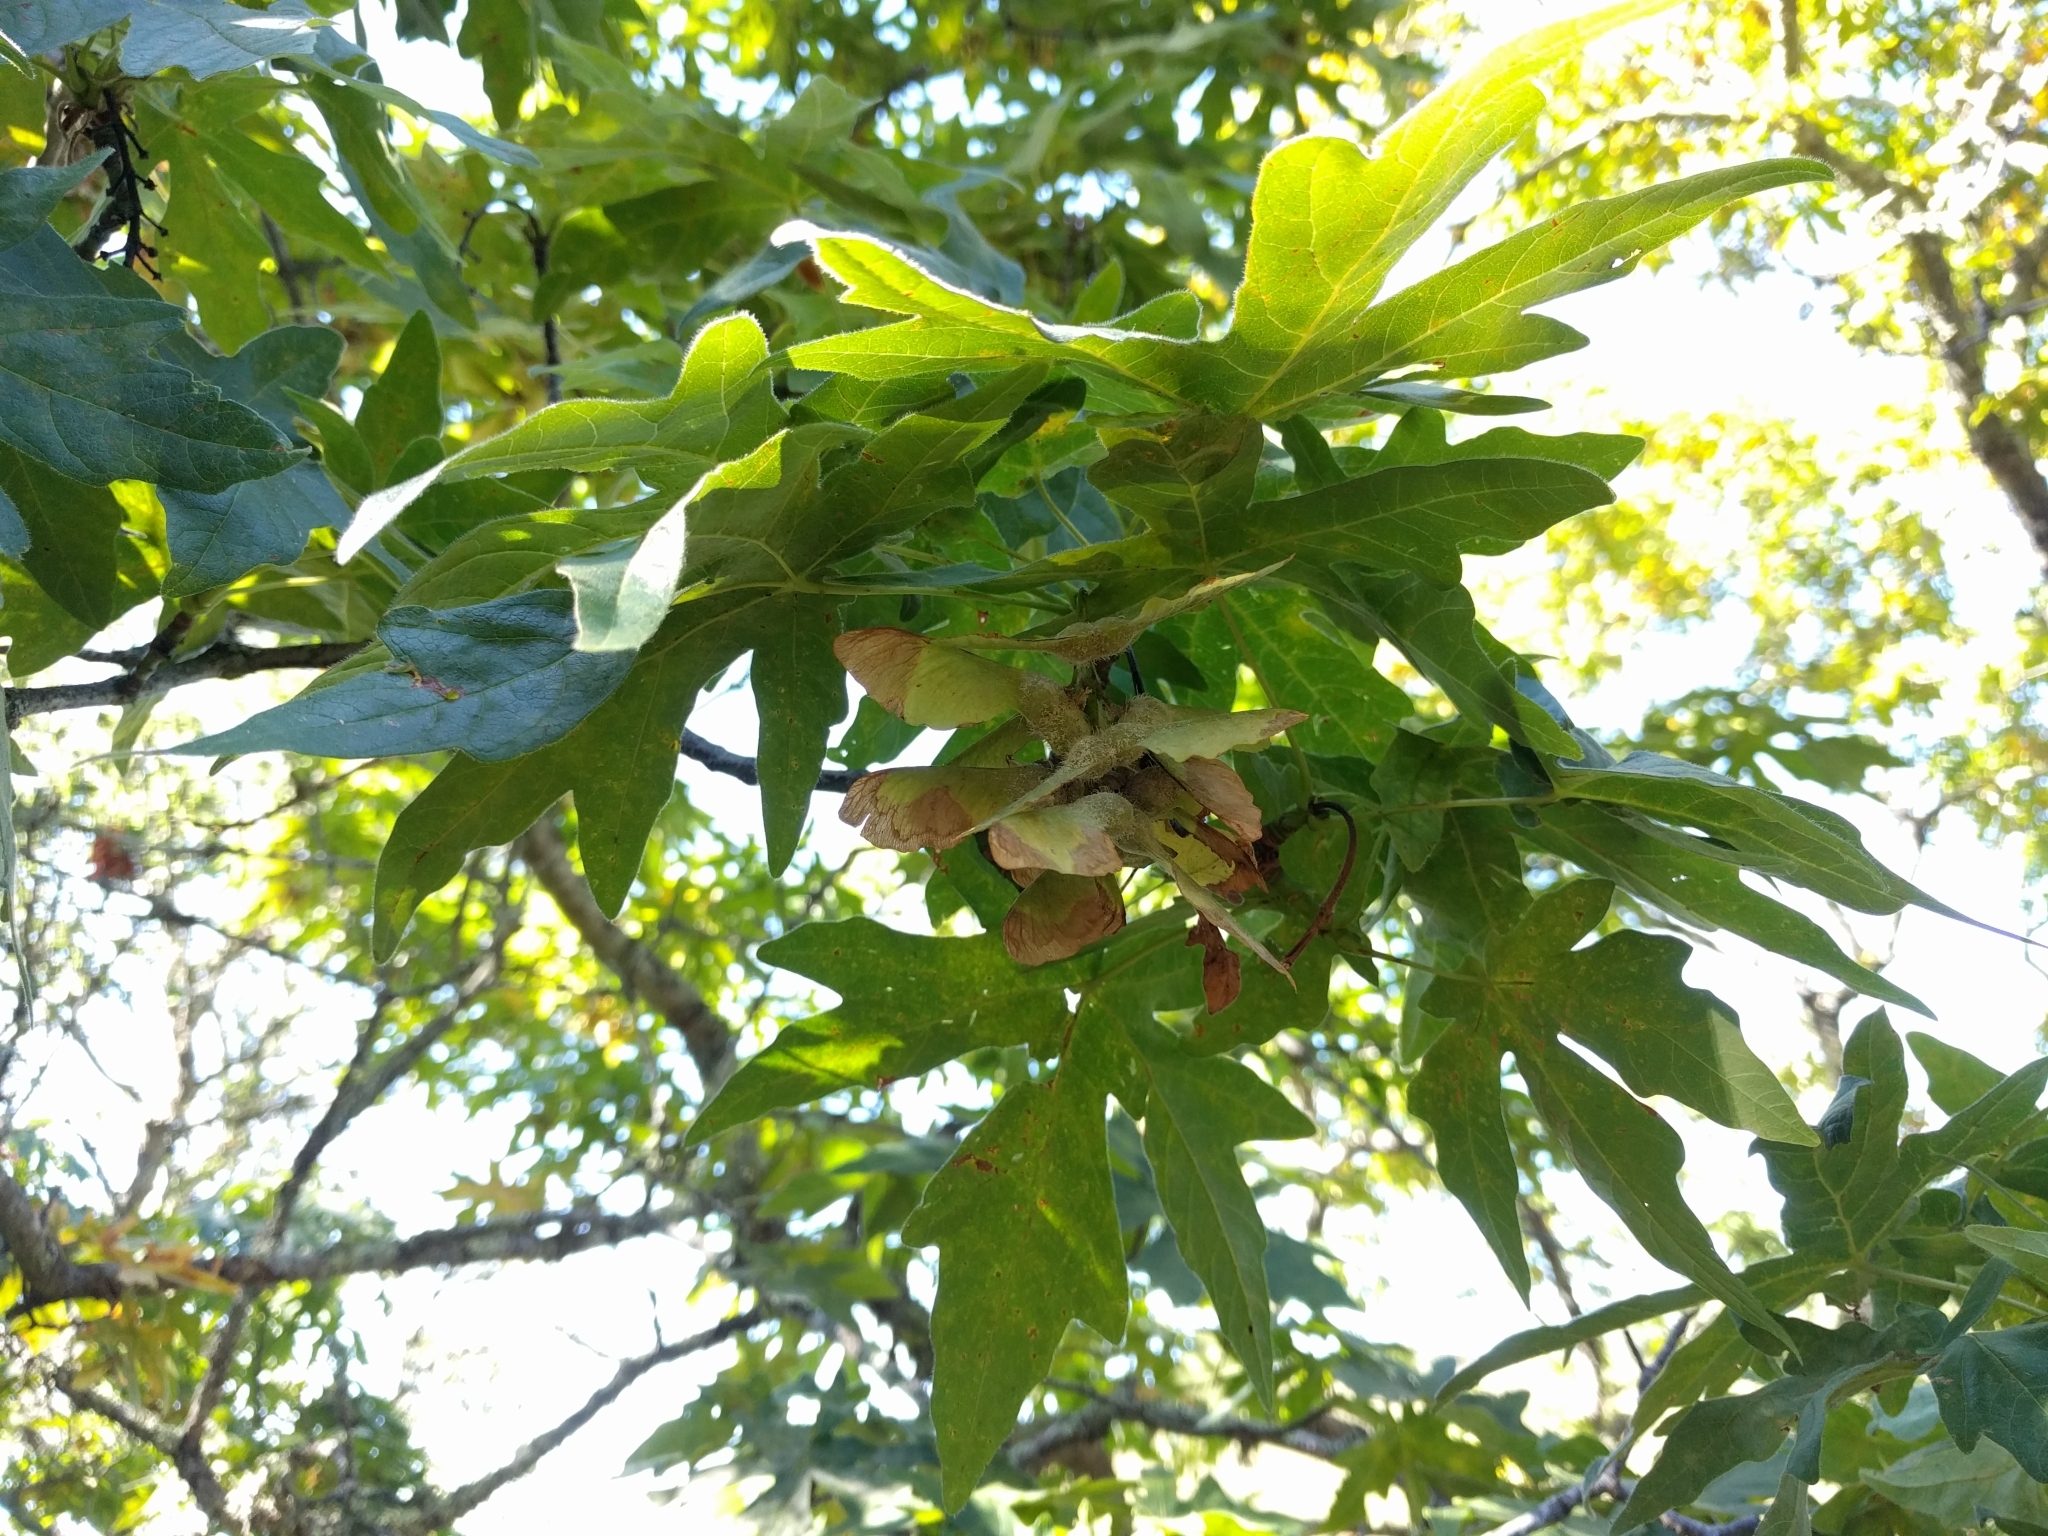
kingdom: Plantae
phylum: Tracheophyta
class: Magnoliopsida
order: Sapindales
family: Sapindaceae
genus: Acer
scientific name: Acer macrophyllum
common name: Oregon maple
